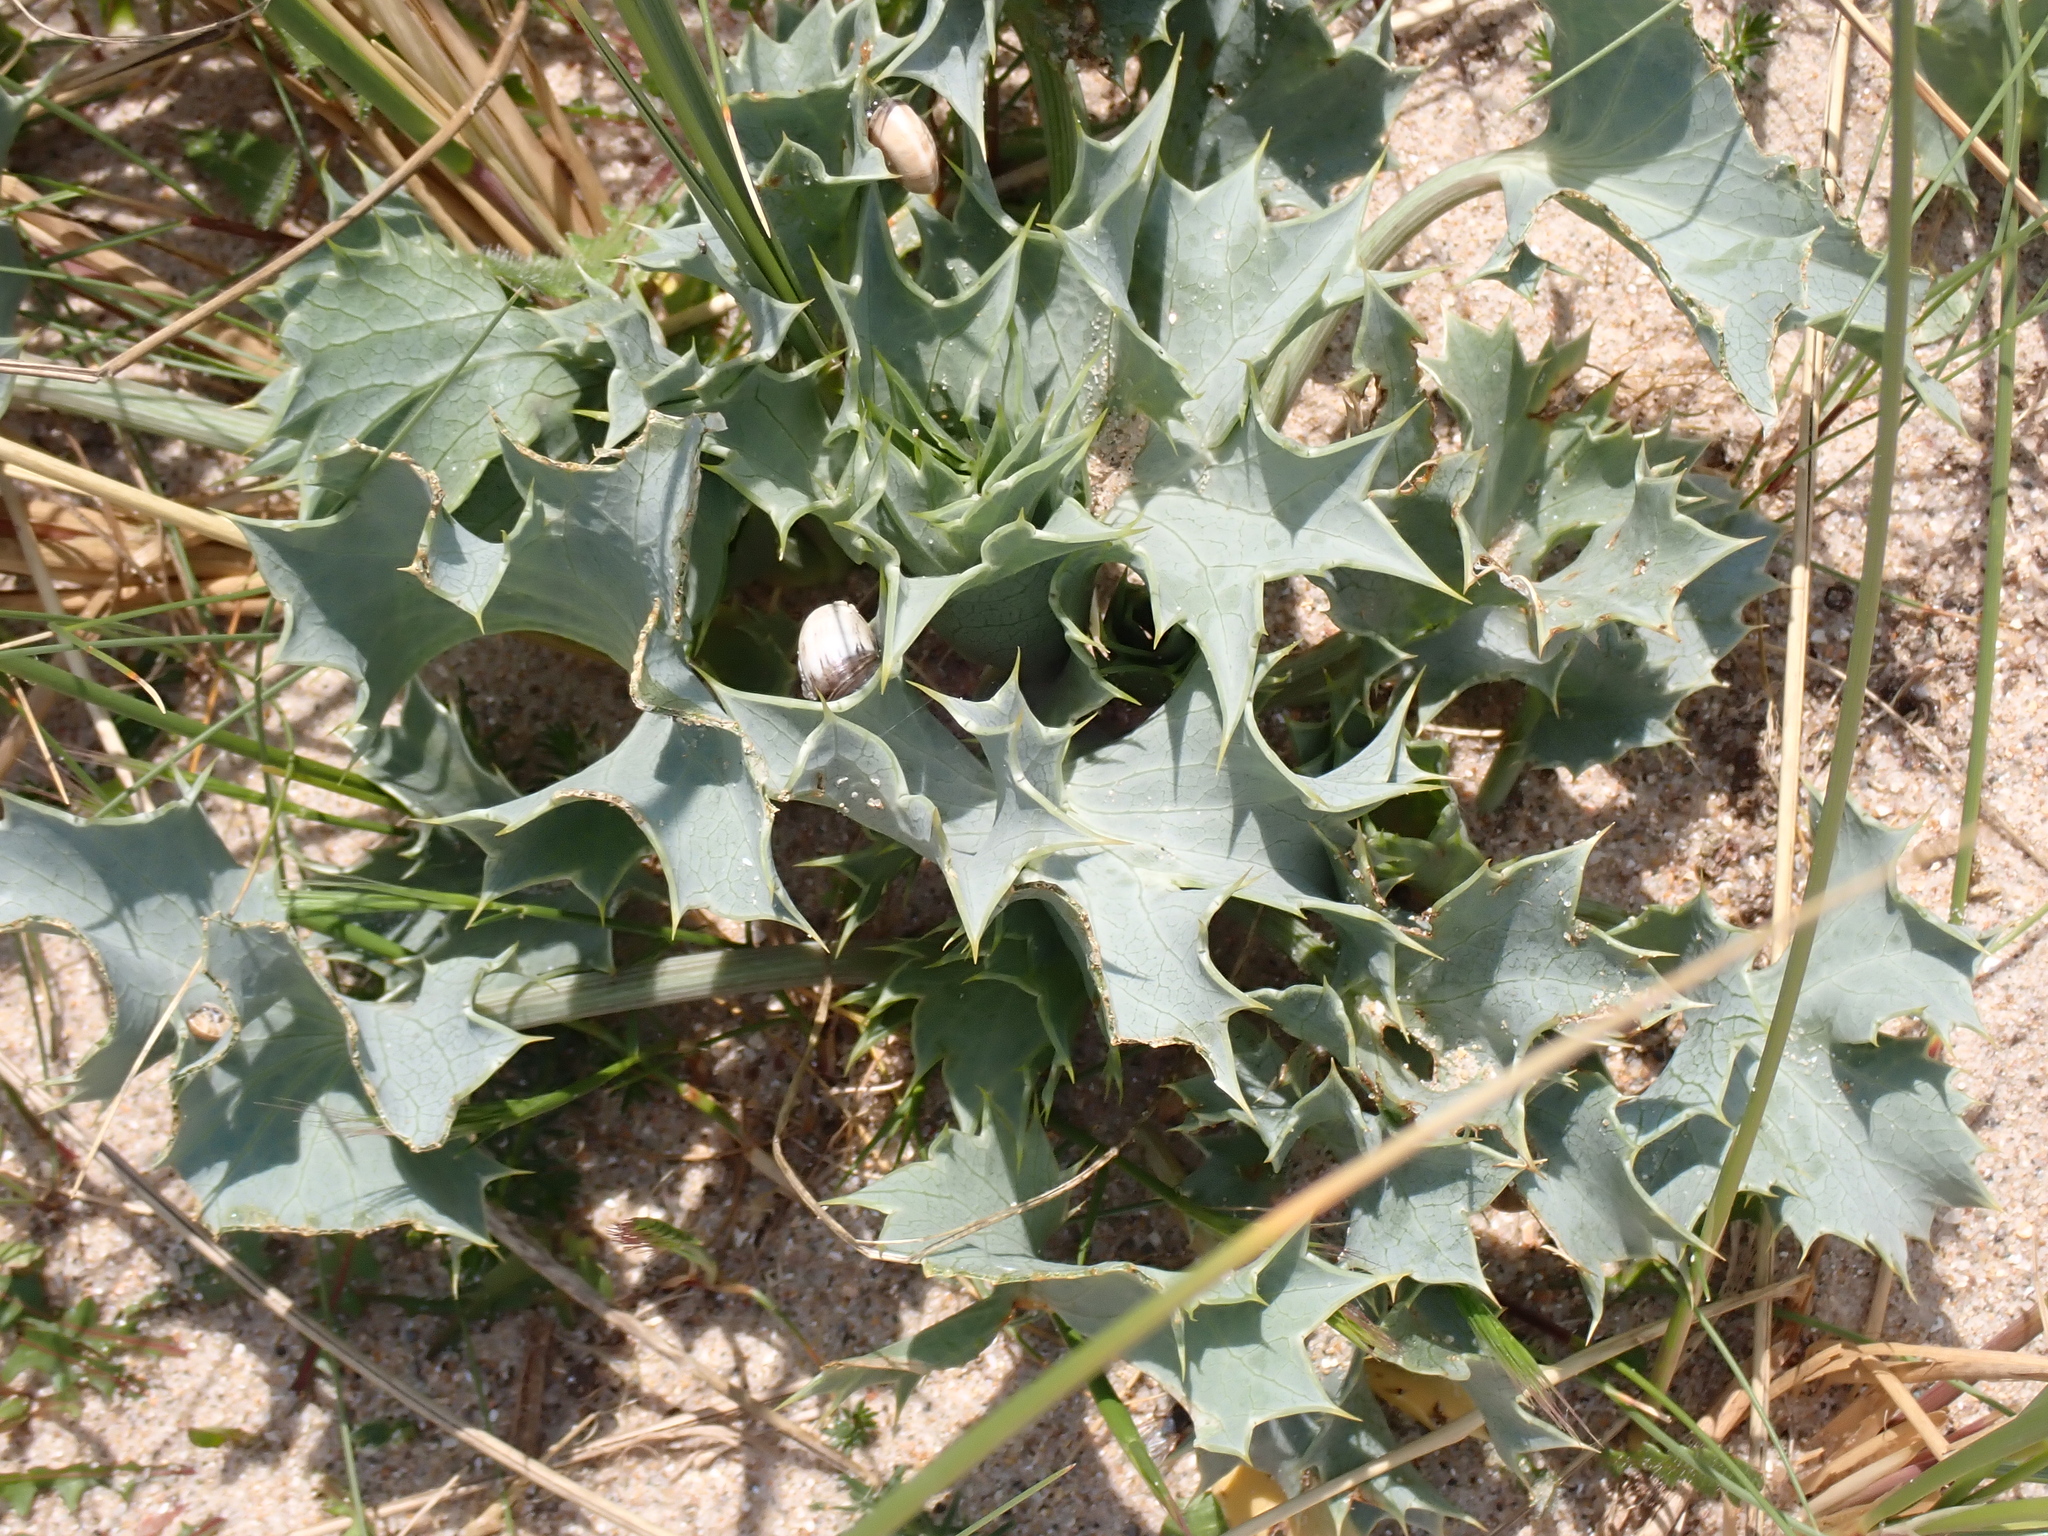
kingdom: Plantae
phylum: Tracheophyta
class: Magnoliopsida
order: Apiales
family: Apiaceae
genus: Eryngium
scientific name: Eryngium maritimum
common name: Sea-holly
